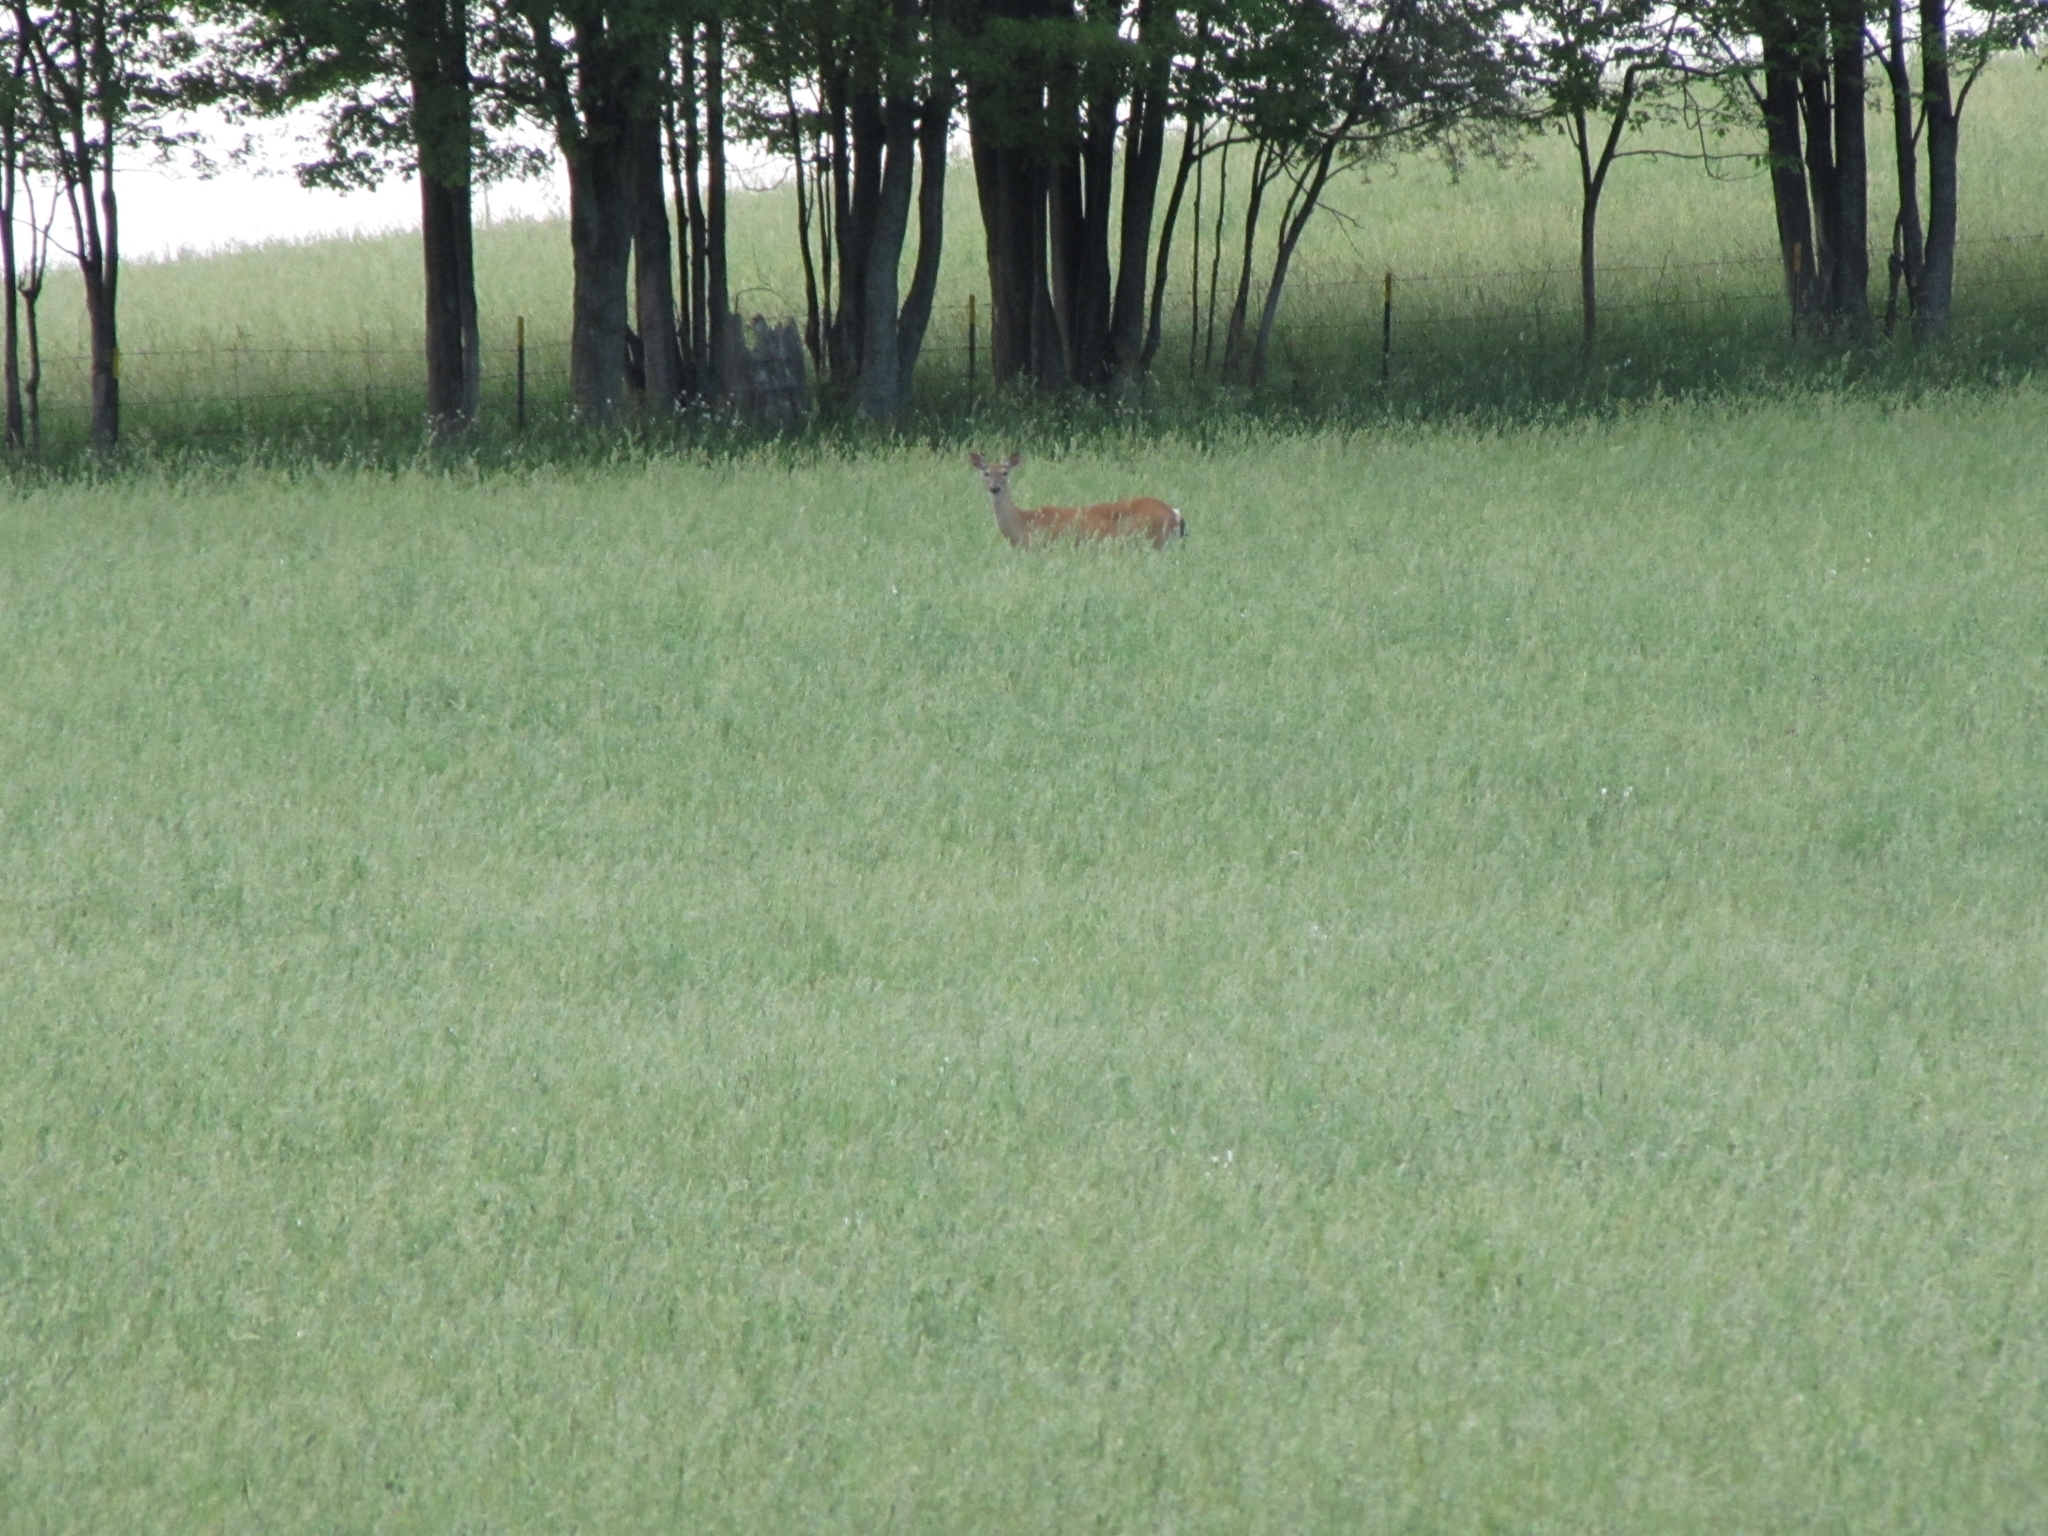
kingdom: Animalia
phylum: Chordata
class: Mammalia
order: Artiodactyla
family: Cervidae
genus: Odocoileus
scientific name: Odocoileus virginianus
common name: White-tailed deer
